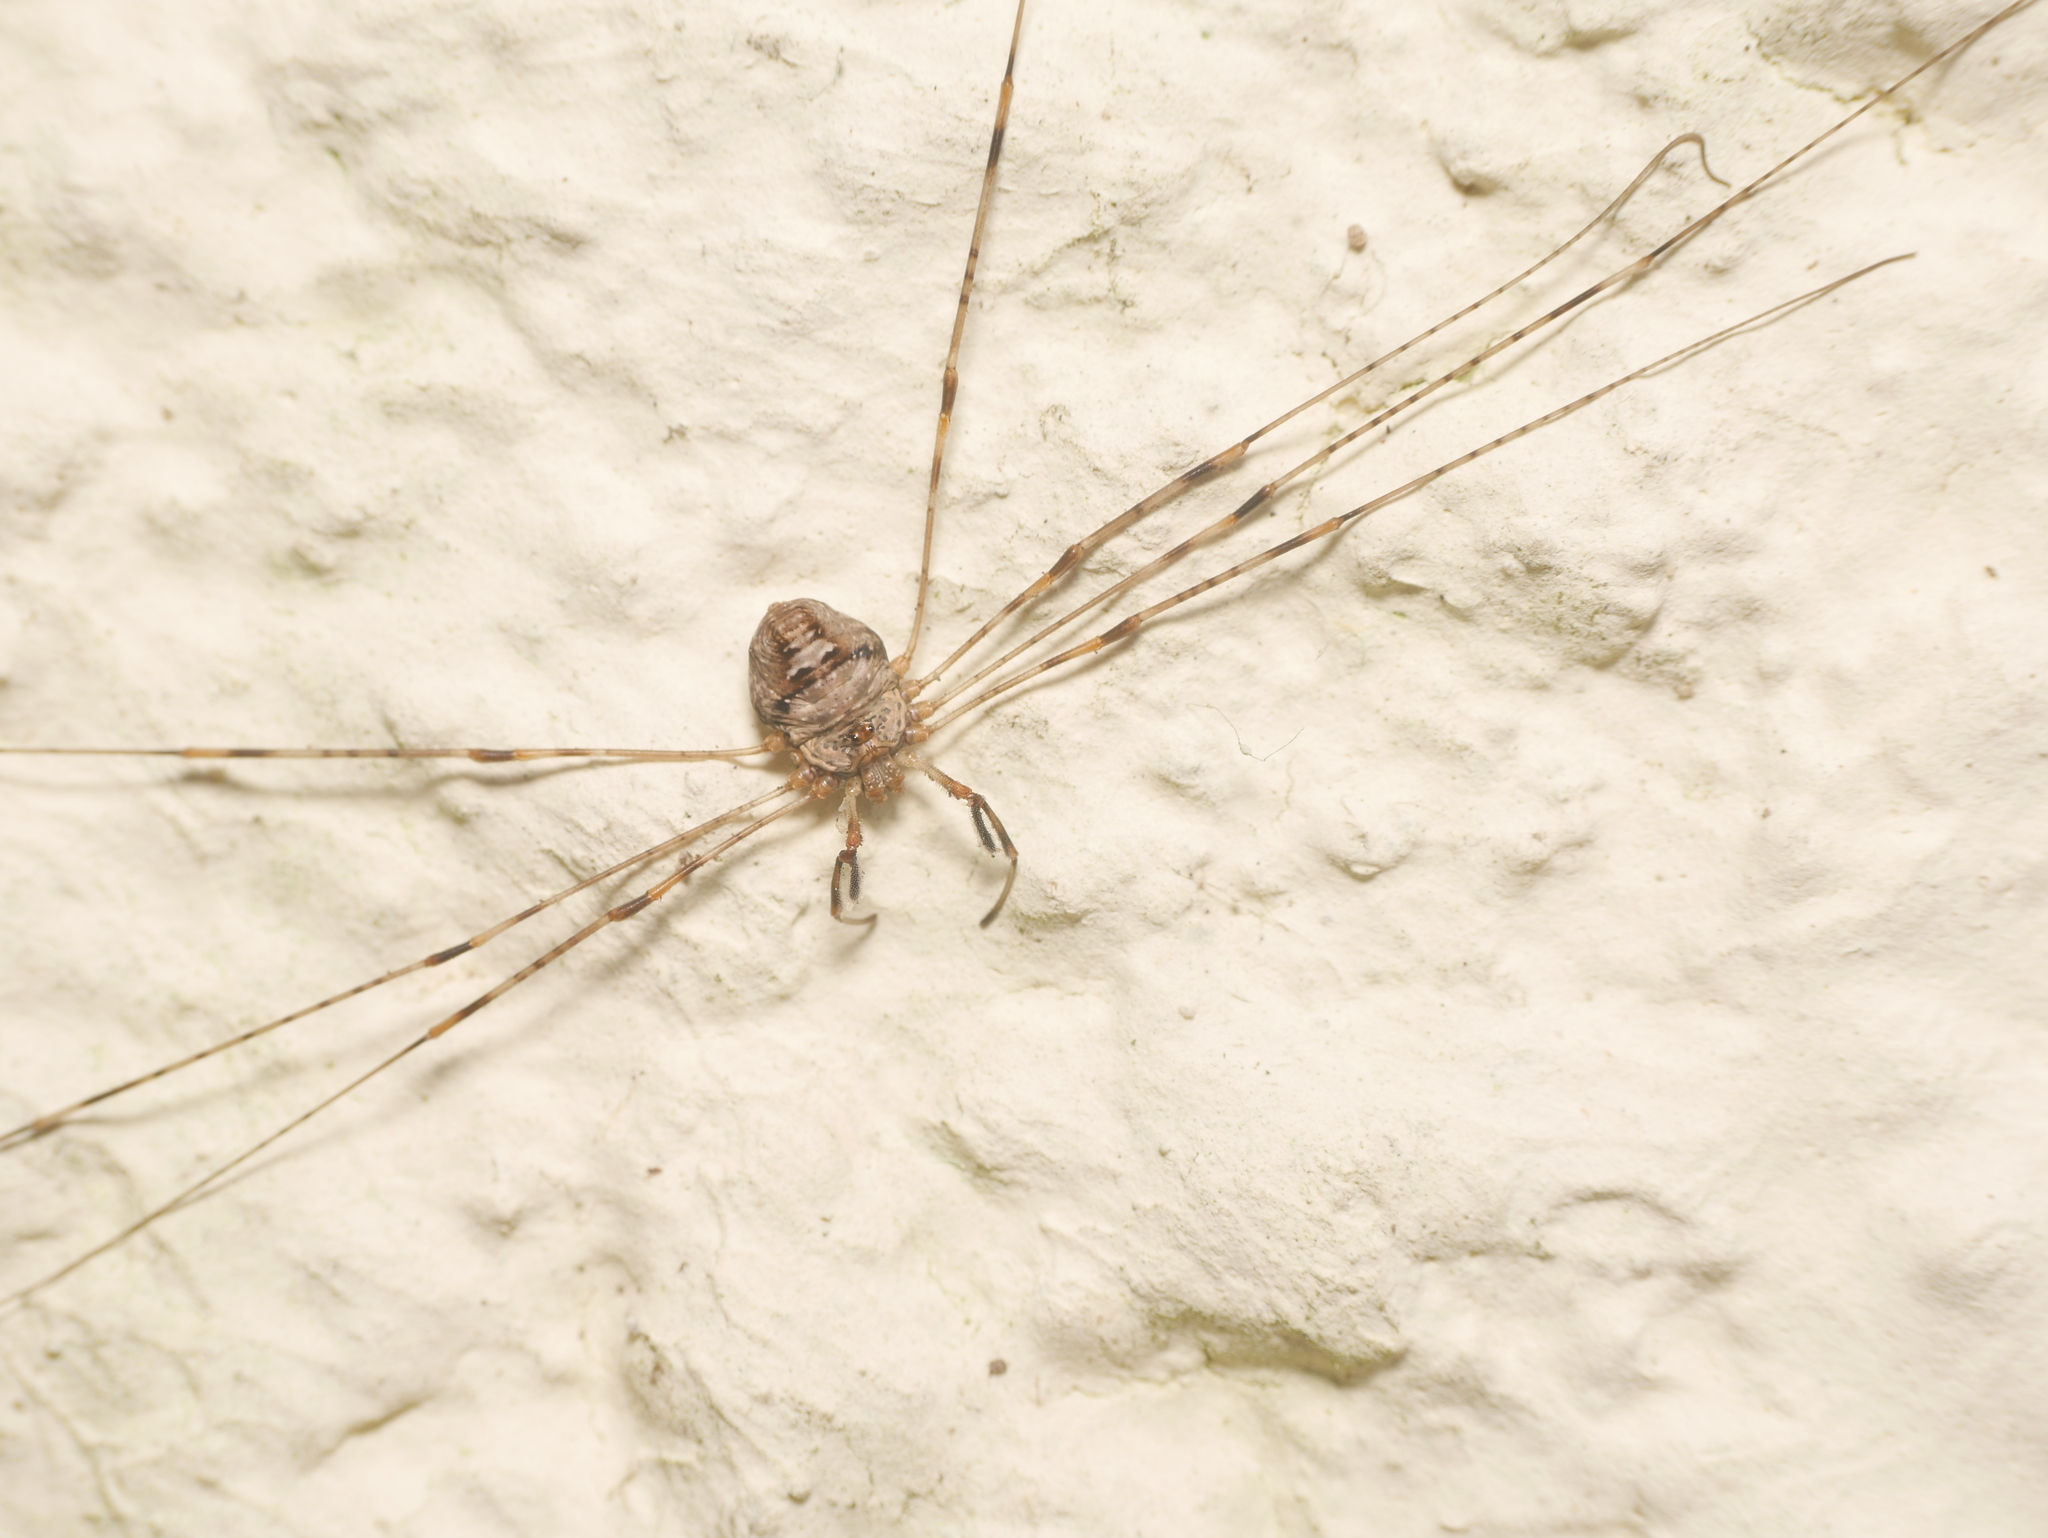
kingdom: Animalia
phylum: Arthropoda
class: Arachnida
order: Opiliones
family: Phalangiidae
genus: Dicranopalpus
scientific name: Dicranopalpus ramosus
